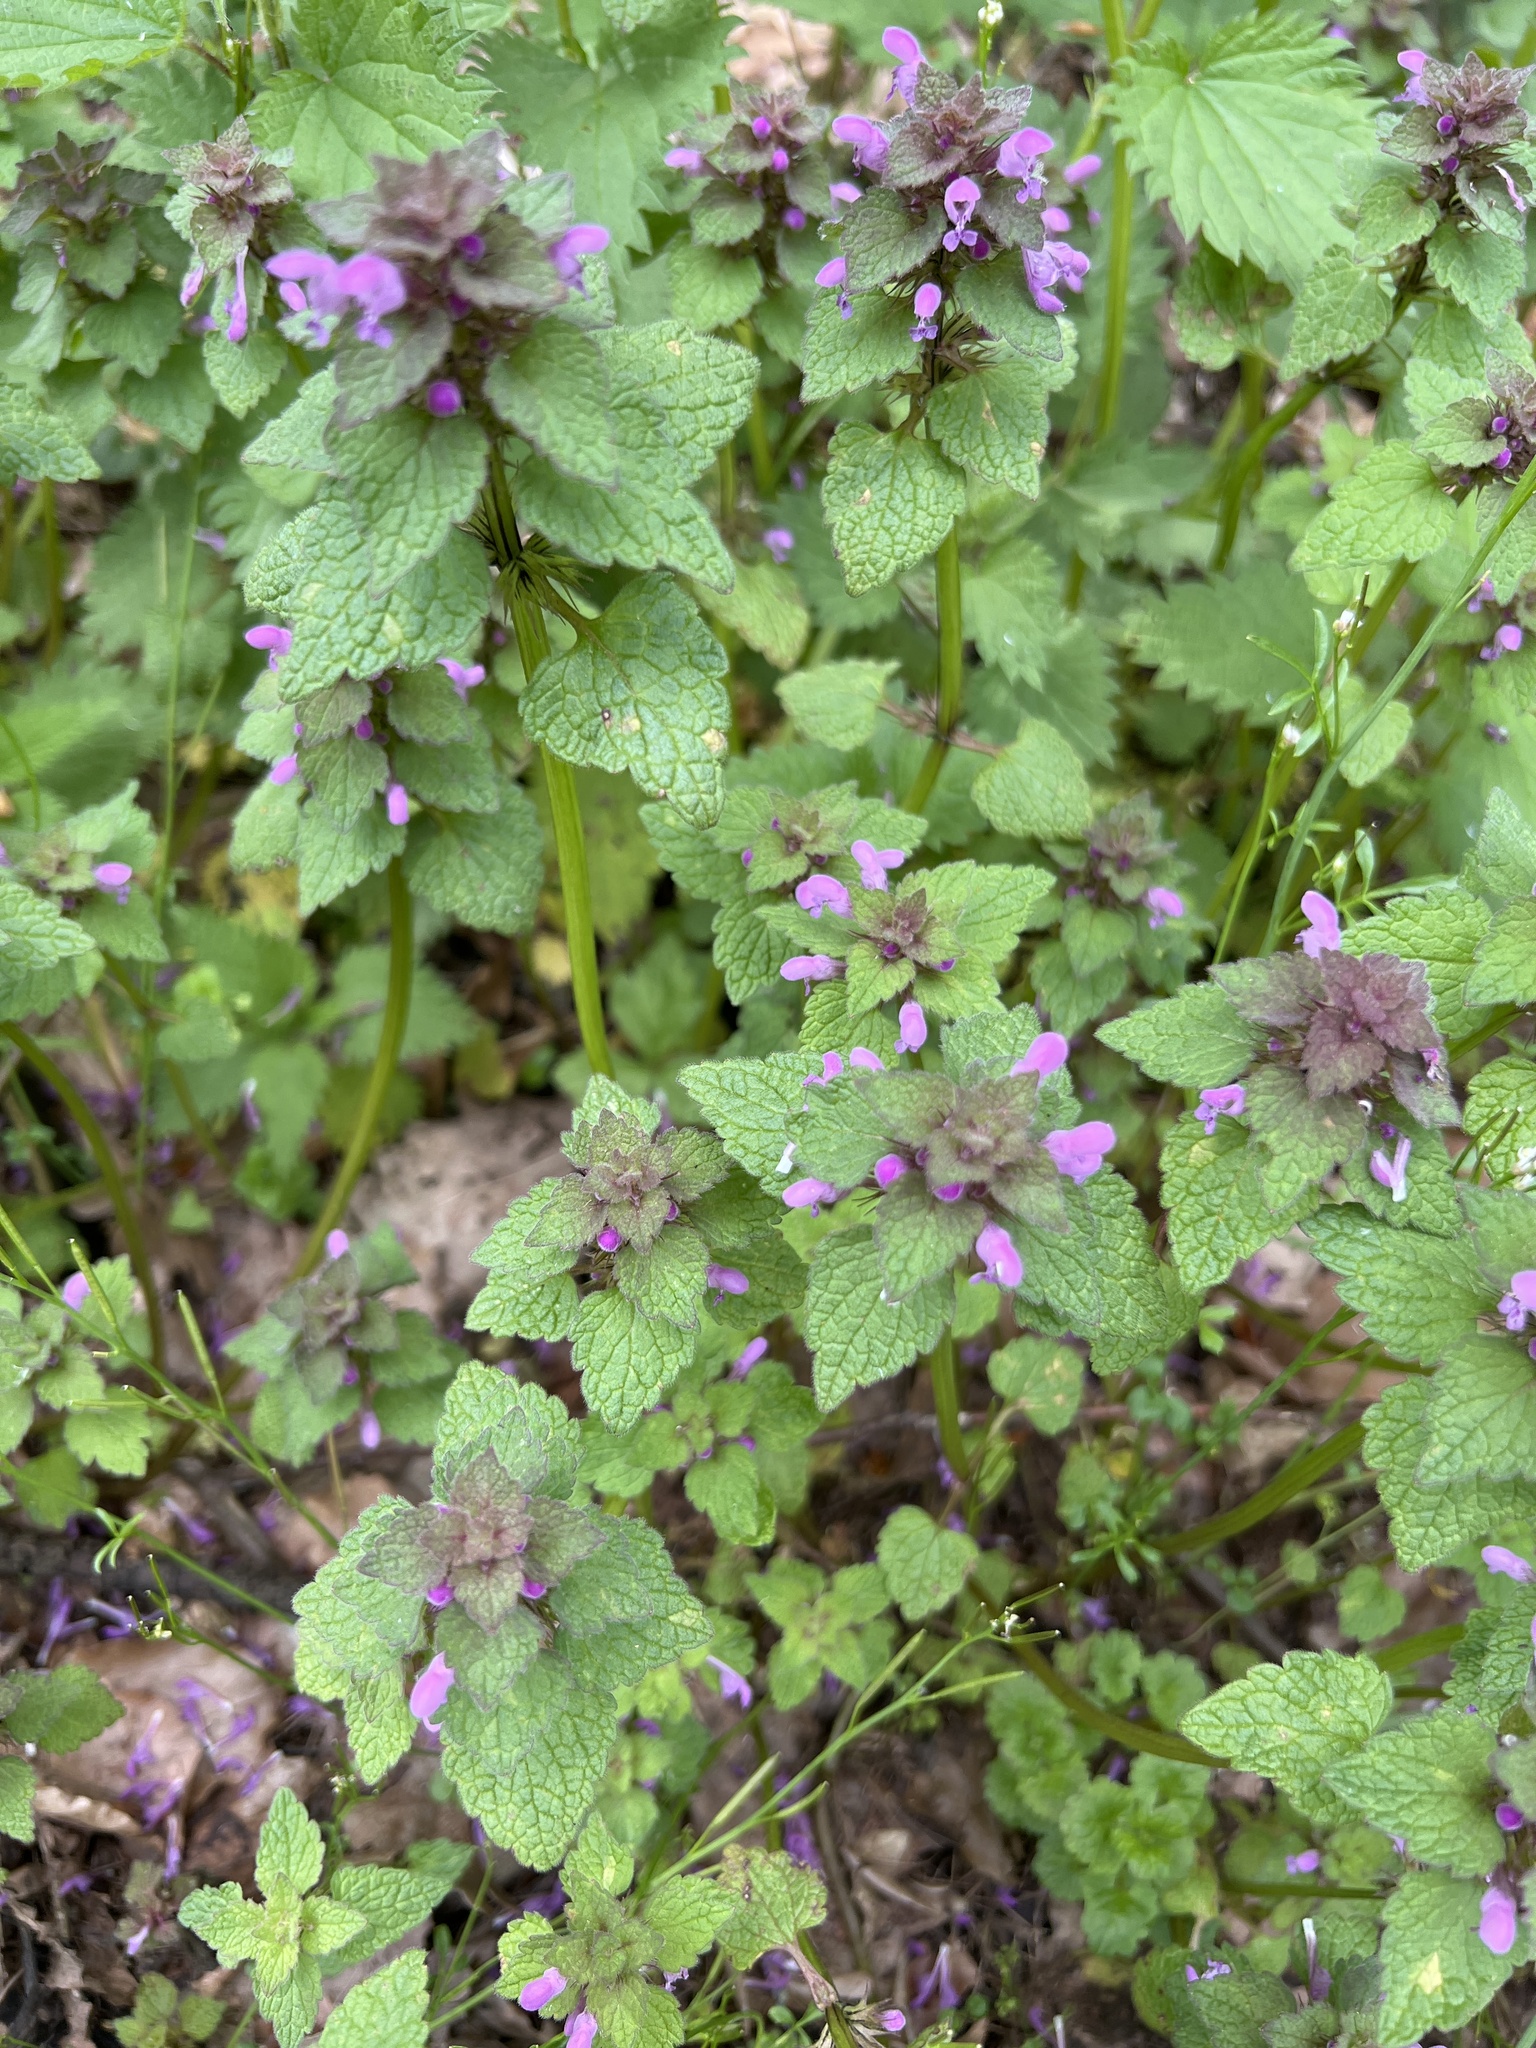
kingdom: Plantae
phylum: Tracheophyta
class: Magnoliopsida
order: Lamiales
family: Lamiaceae
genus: Lamium
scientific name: Lamium purpureum
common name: Red dead-nettle
